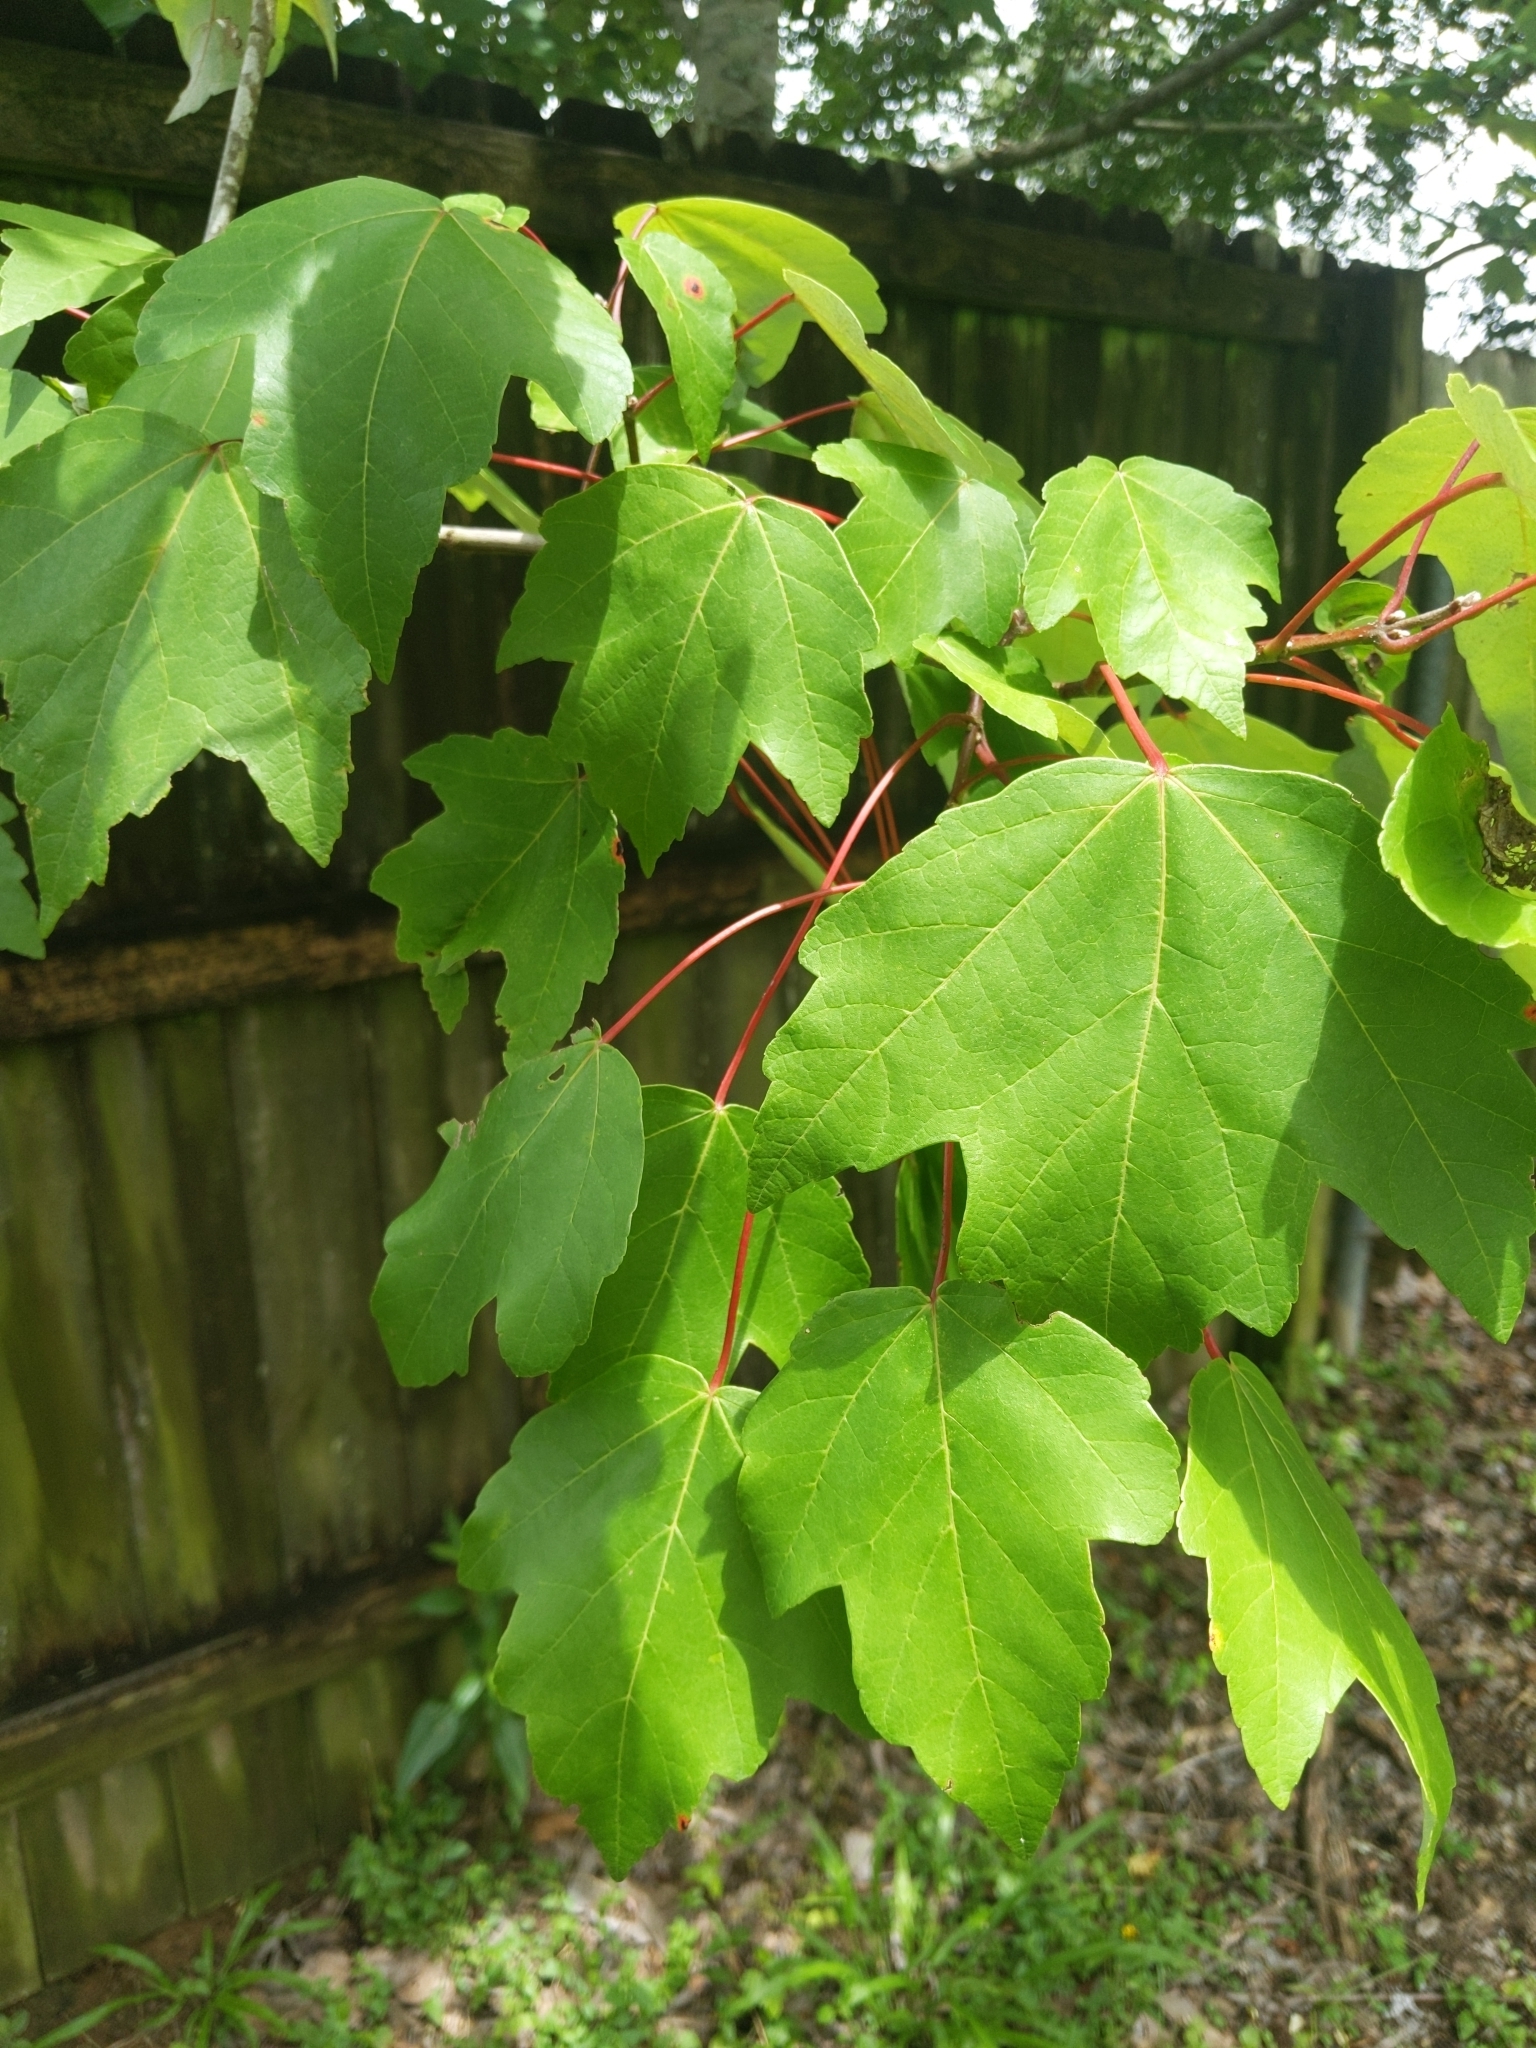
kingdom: Plantae
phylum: Tracheophyta
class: Magnoliopsida
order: Sapindales
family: Sapindaceae
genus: Acer
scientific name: Acer rubrum
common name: Red maple
